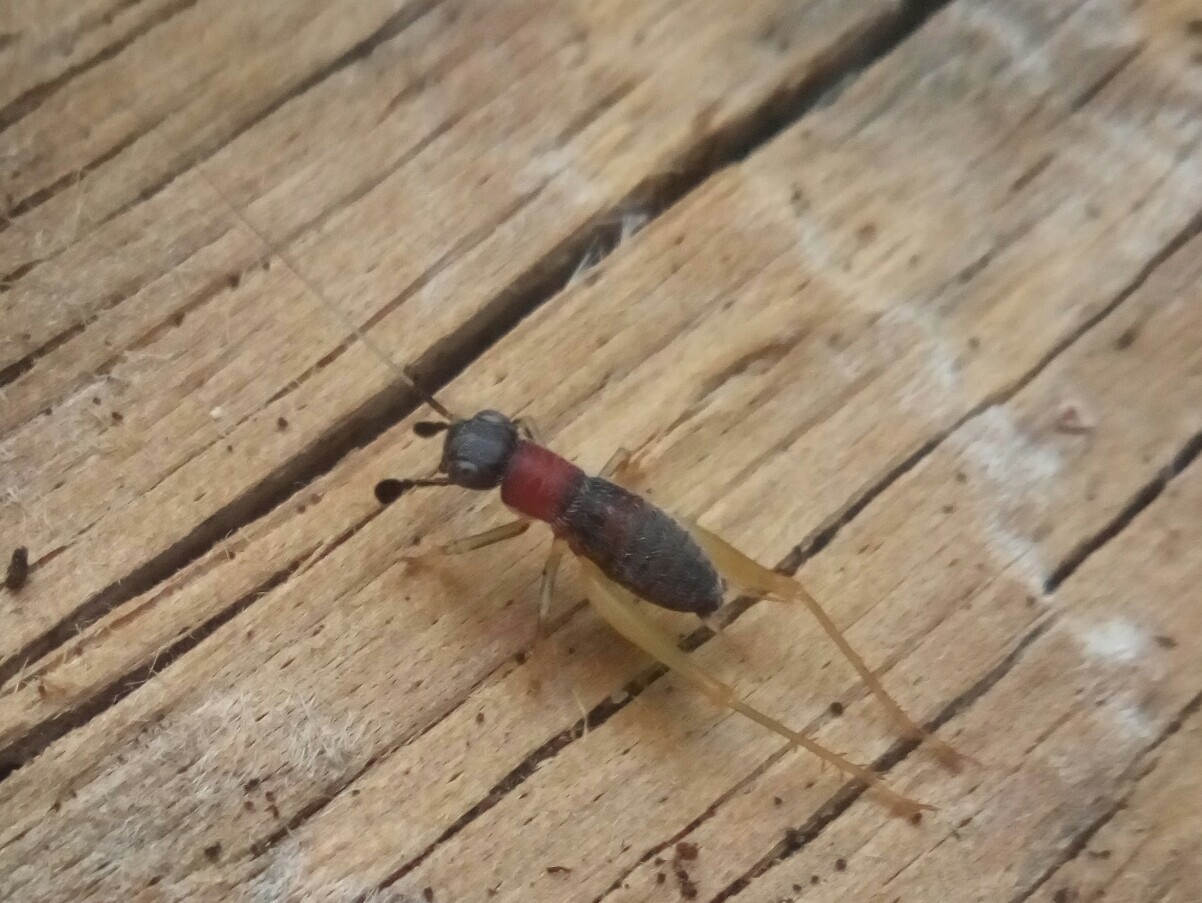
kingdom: Animalia
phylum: Arthropoda
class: Insecta
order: Orthoptera
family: Trigonidiidae
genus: Phyllopalpus
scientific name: Phyllopalpus pulchellus
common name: Handsome trig
